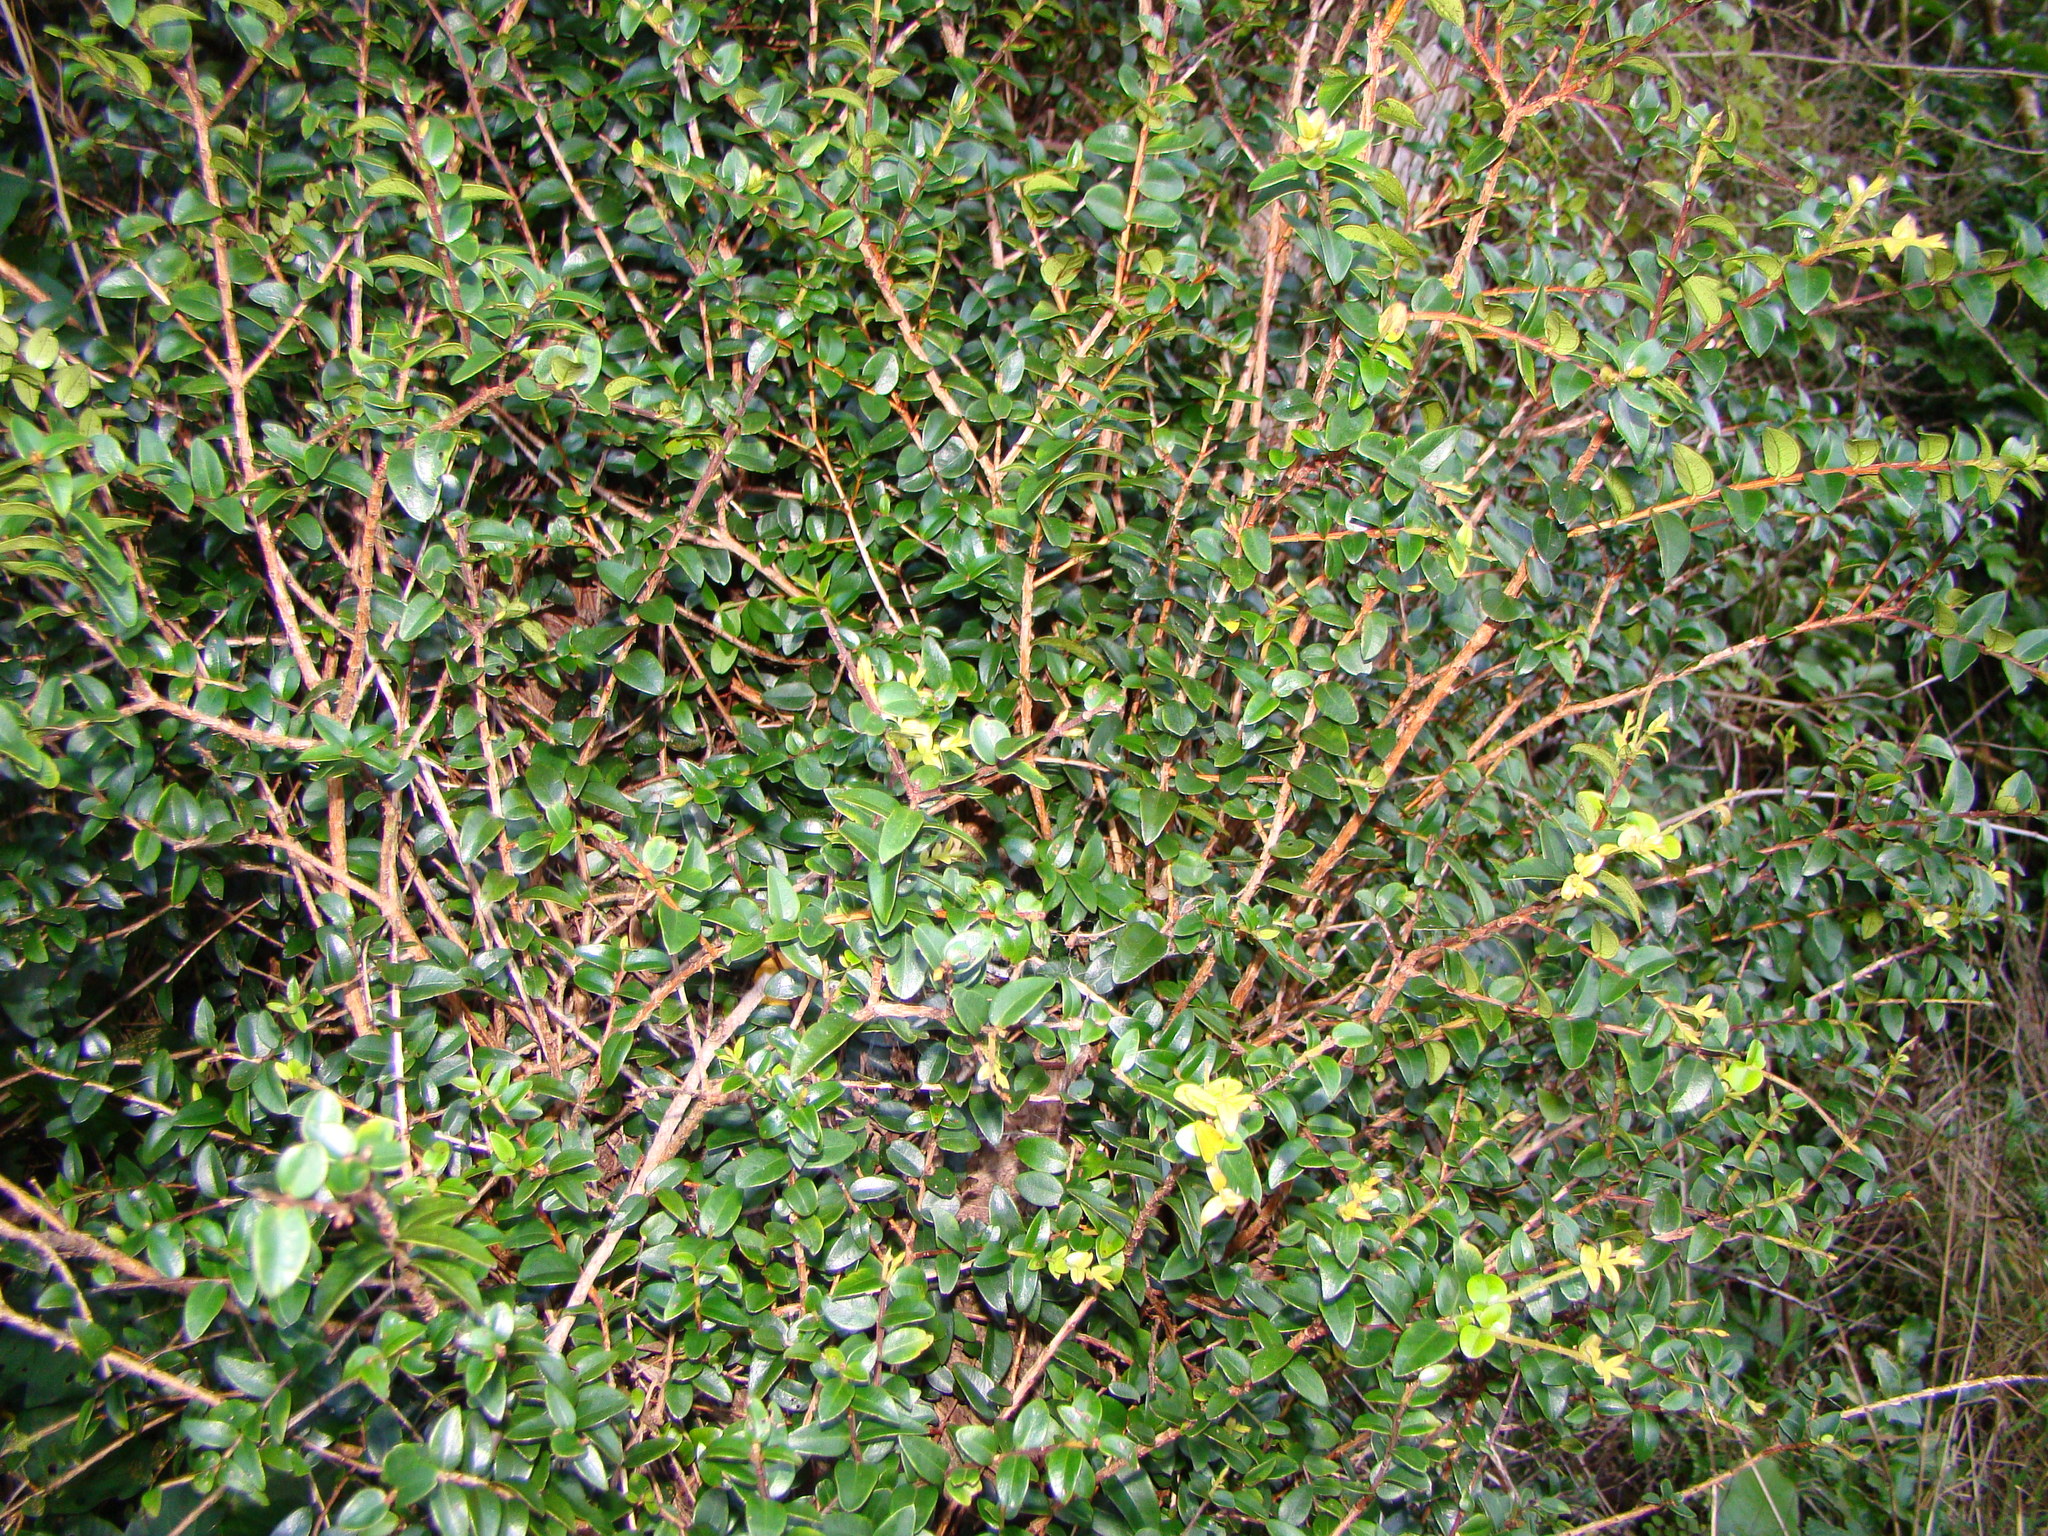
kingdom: Plantae
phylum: Tracheophyta
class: Magnoliopsida
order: Myrtales
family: Myrtaceae
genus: Metrosideros
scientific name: Metrosideros diffusa
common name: Small ratavine
